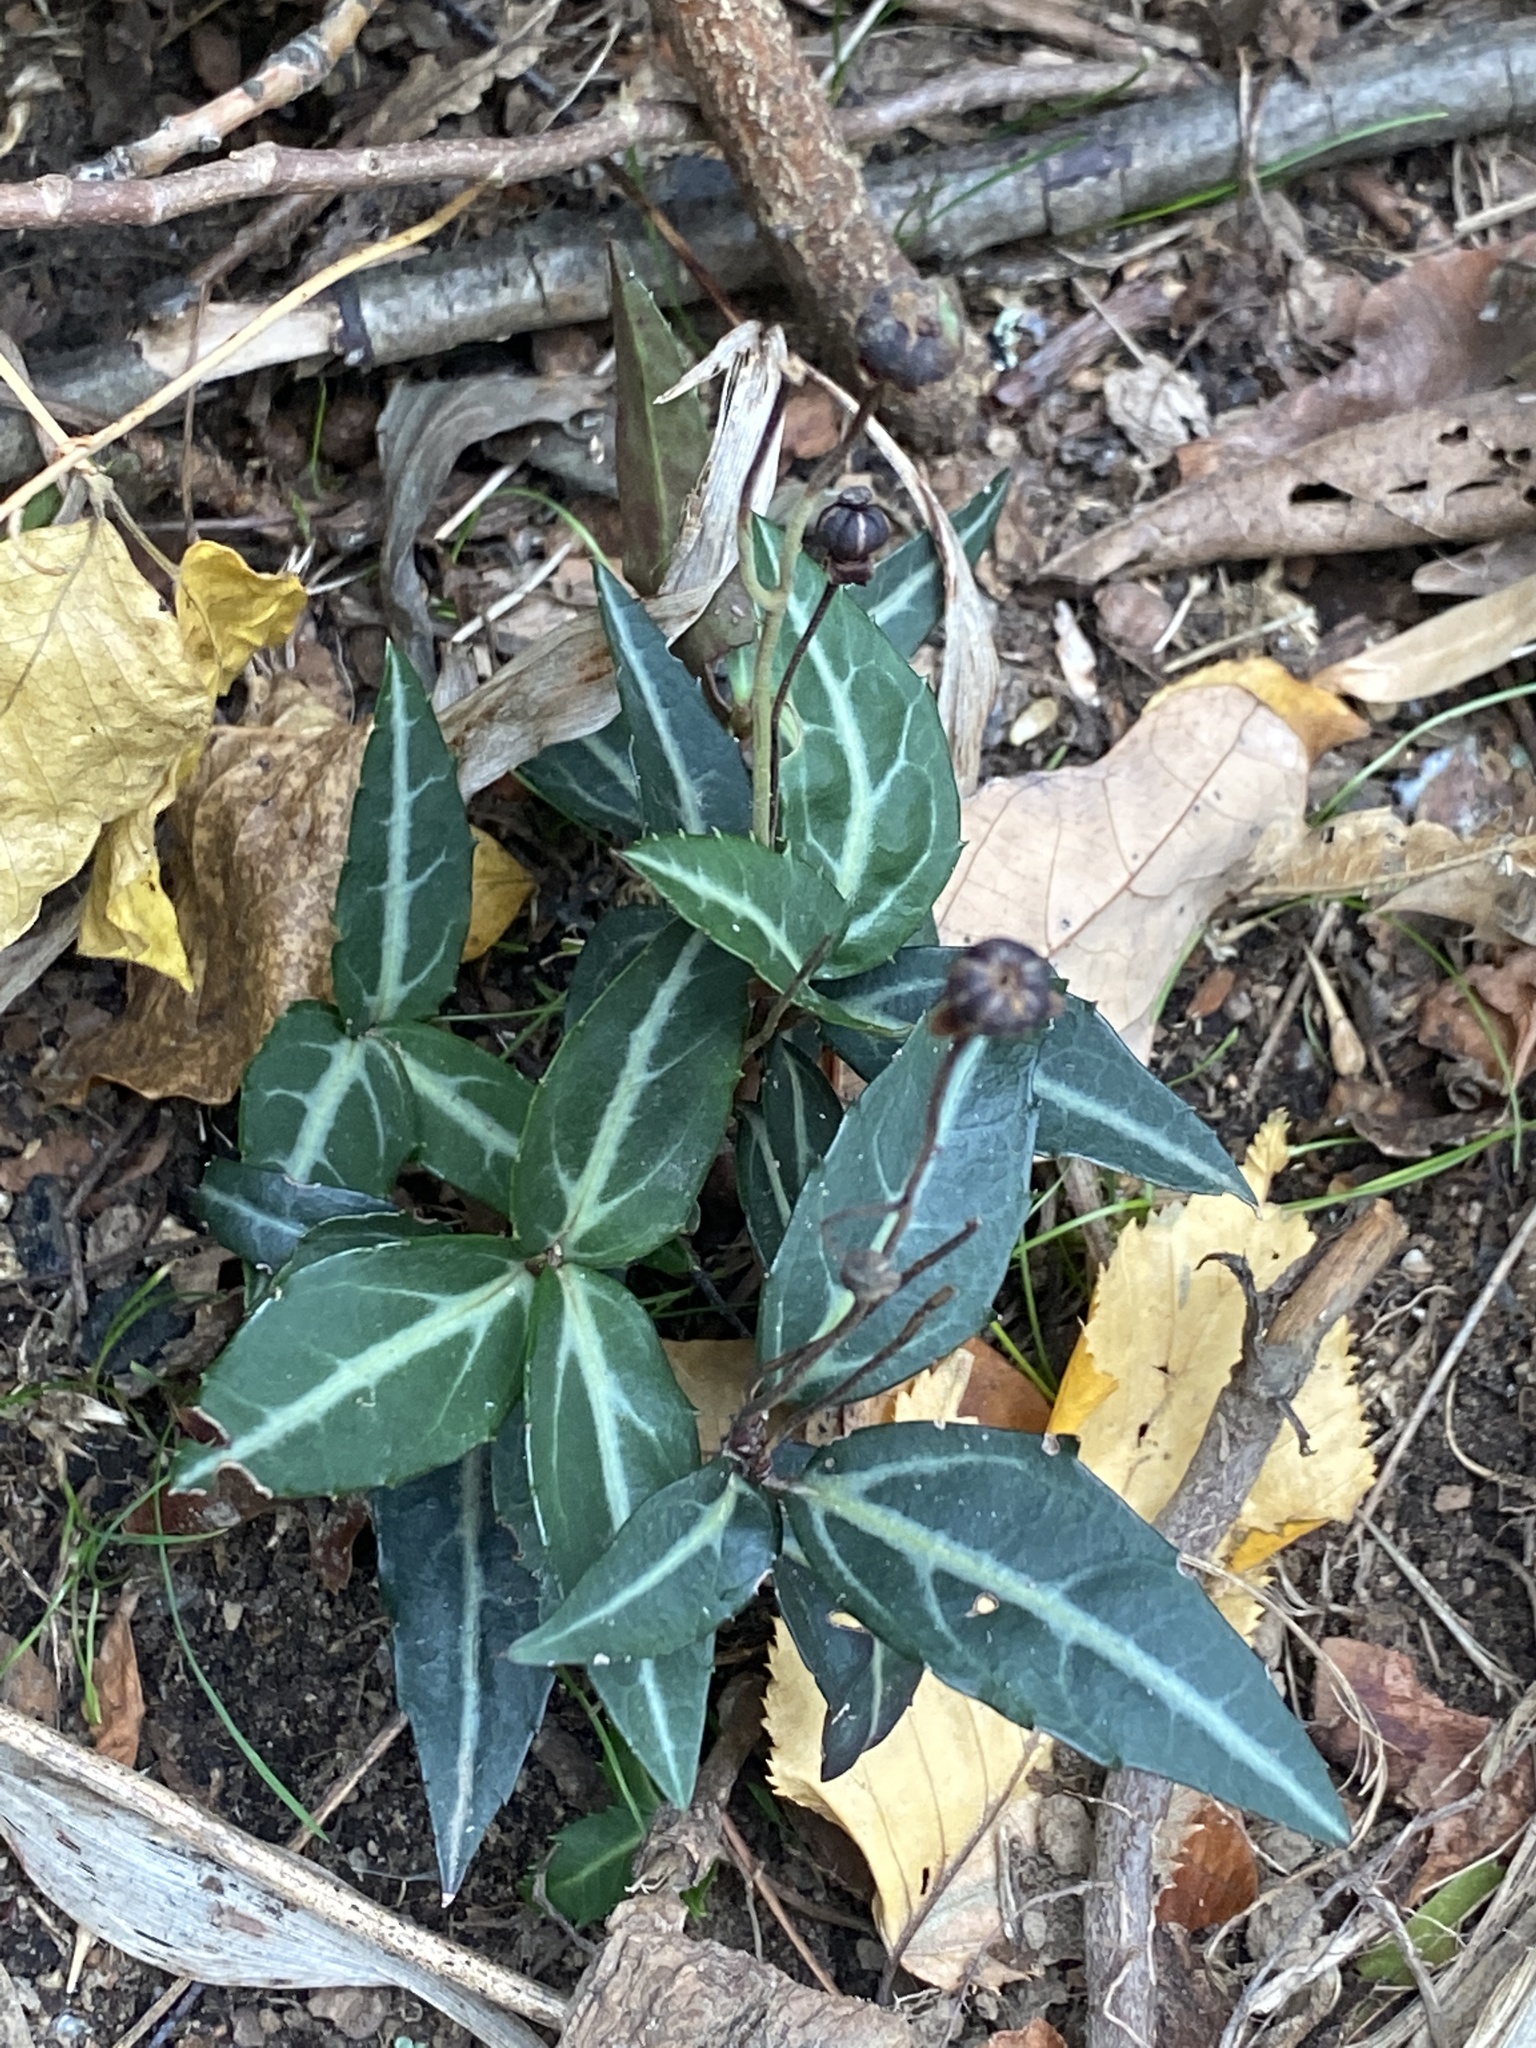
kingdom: Plantae
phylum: Tracheophyta
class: Magnoliopsida
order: Ericales
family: Ericaceae
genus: Chimaphila
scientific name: Chimaphila maculata
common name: Spotted pipsissewa
